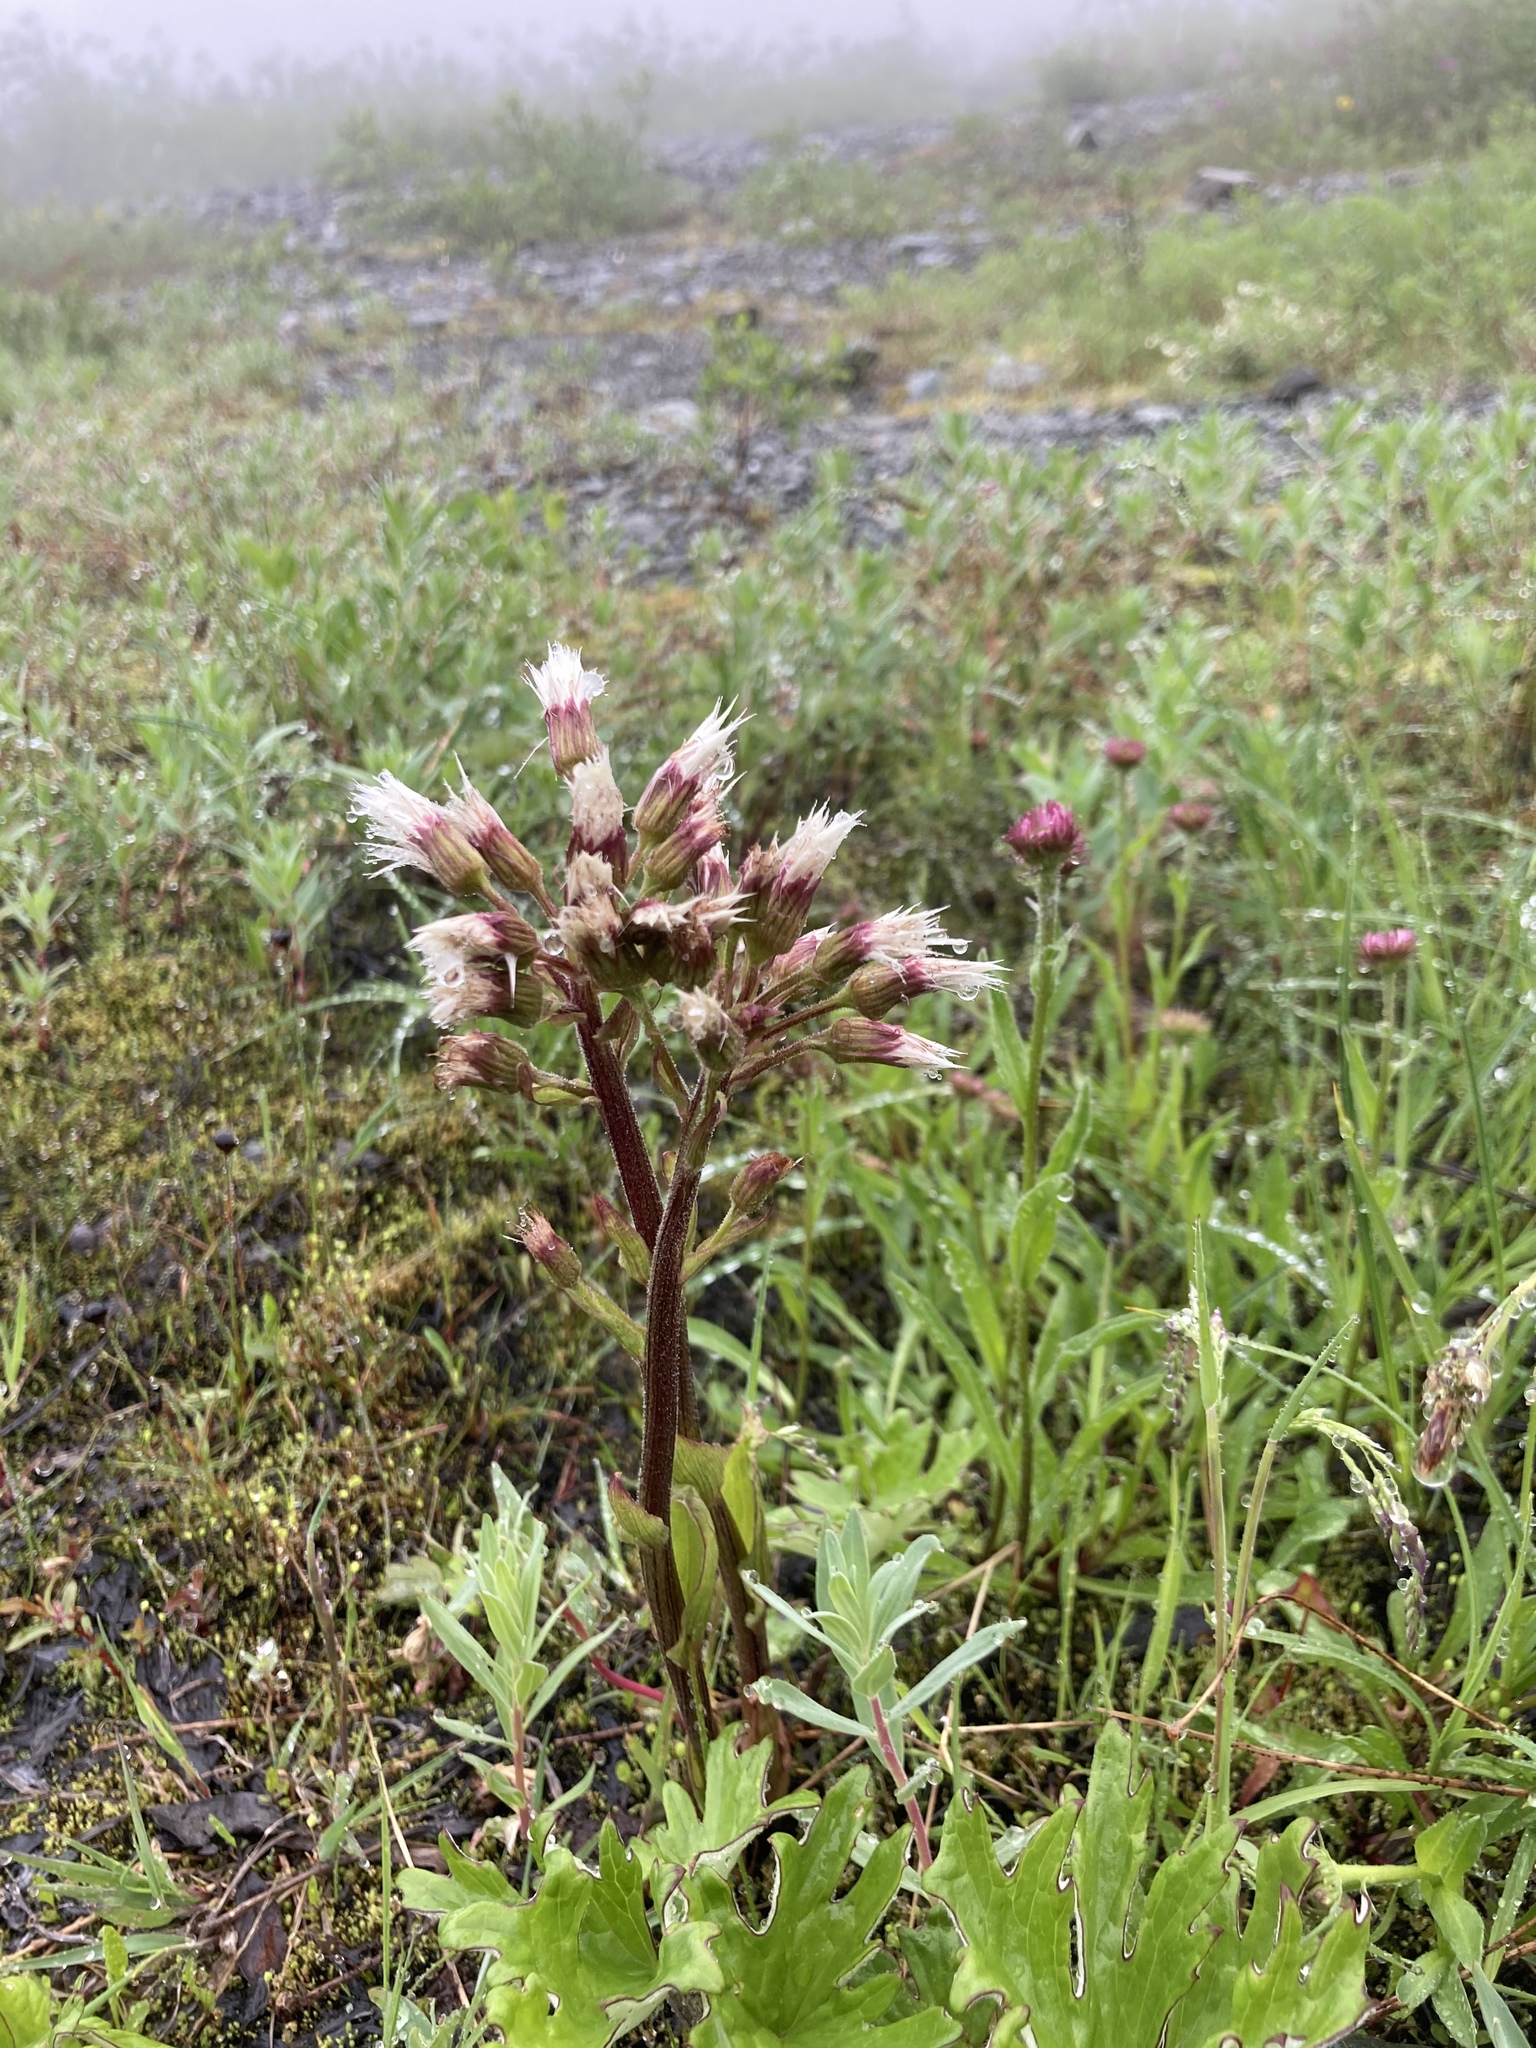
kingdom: Plantae
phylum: Tracheophyta
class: Magnoliopsida
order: Asterales
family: Asteraceae
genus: Petasites
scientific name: Petasites frigidus
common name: Arctic butterbur
